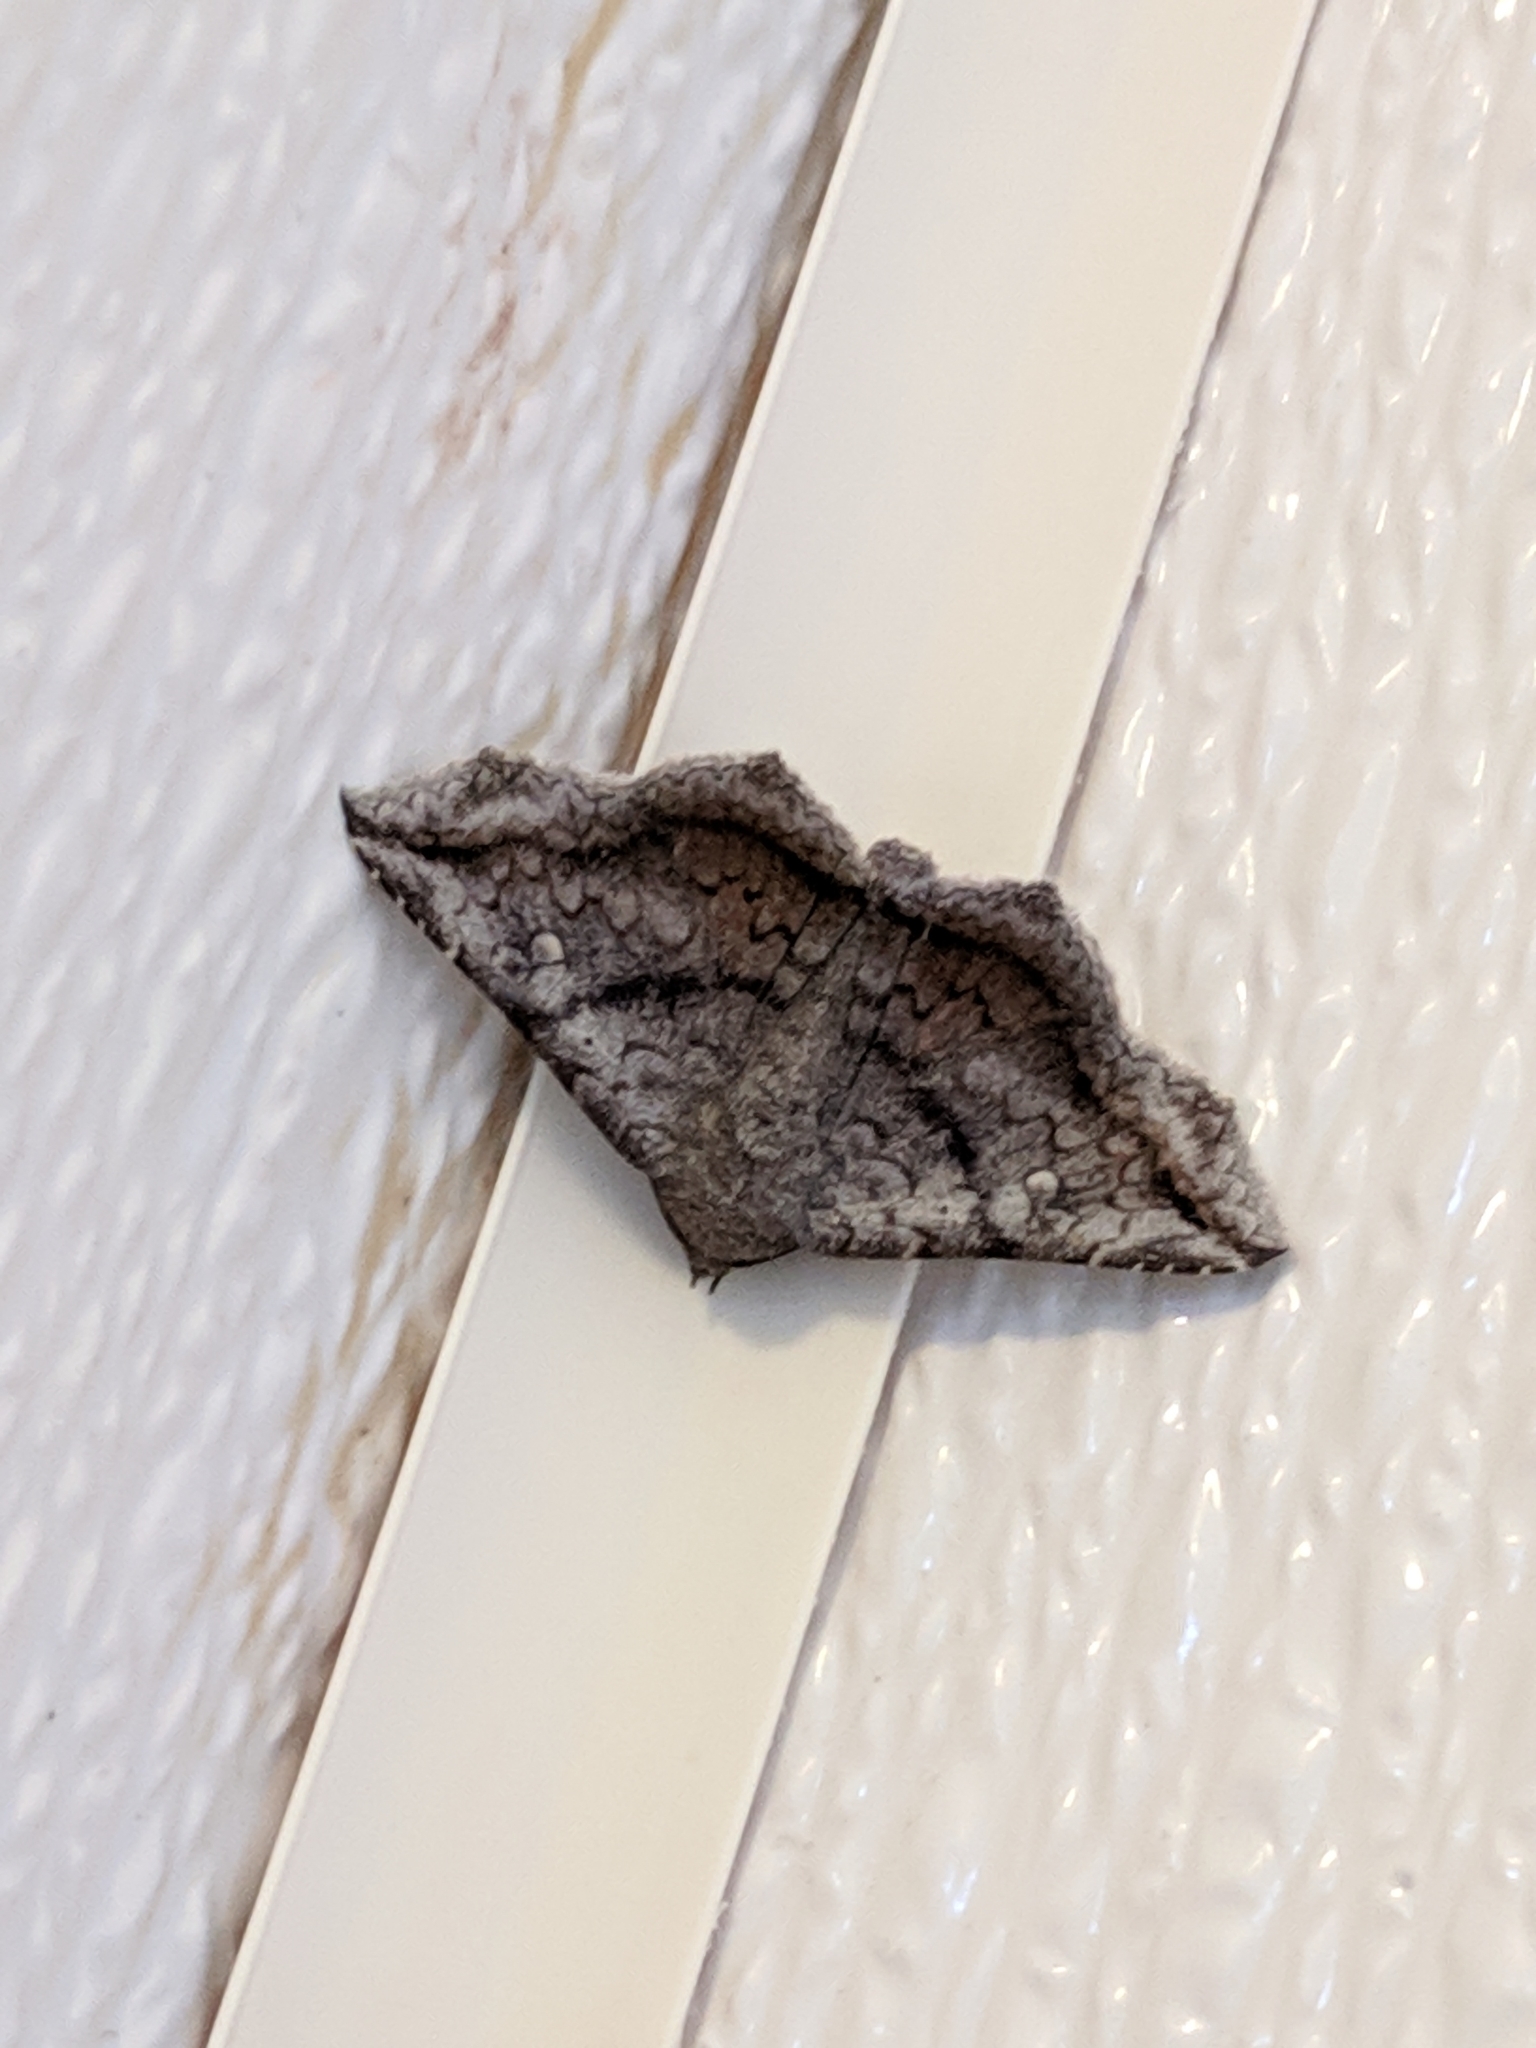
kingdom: Animalia
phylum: Arthropoda
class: Insecta
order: Lepidoptera
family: Erebidae
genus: Lesmone
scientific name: Lesmone hinna
